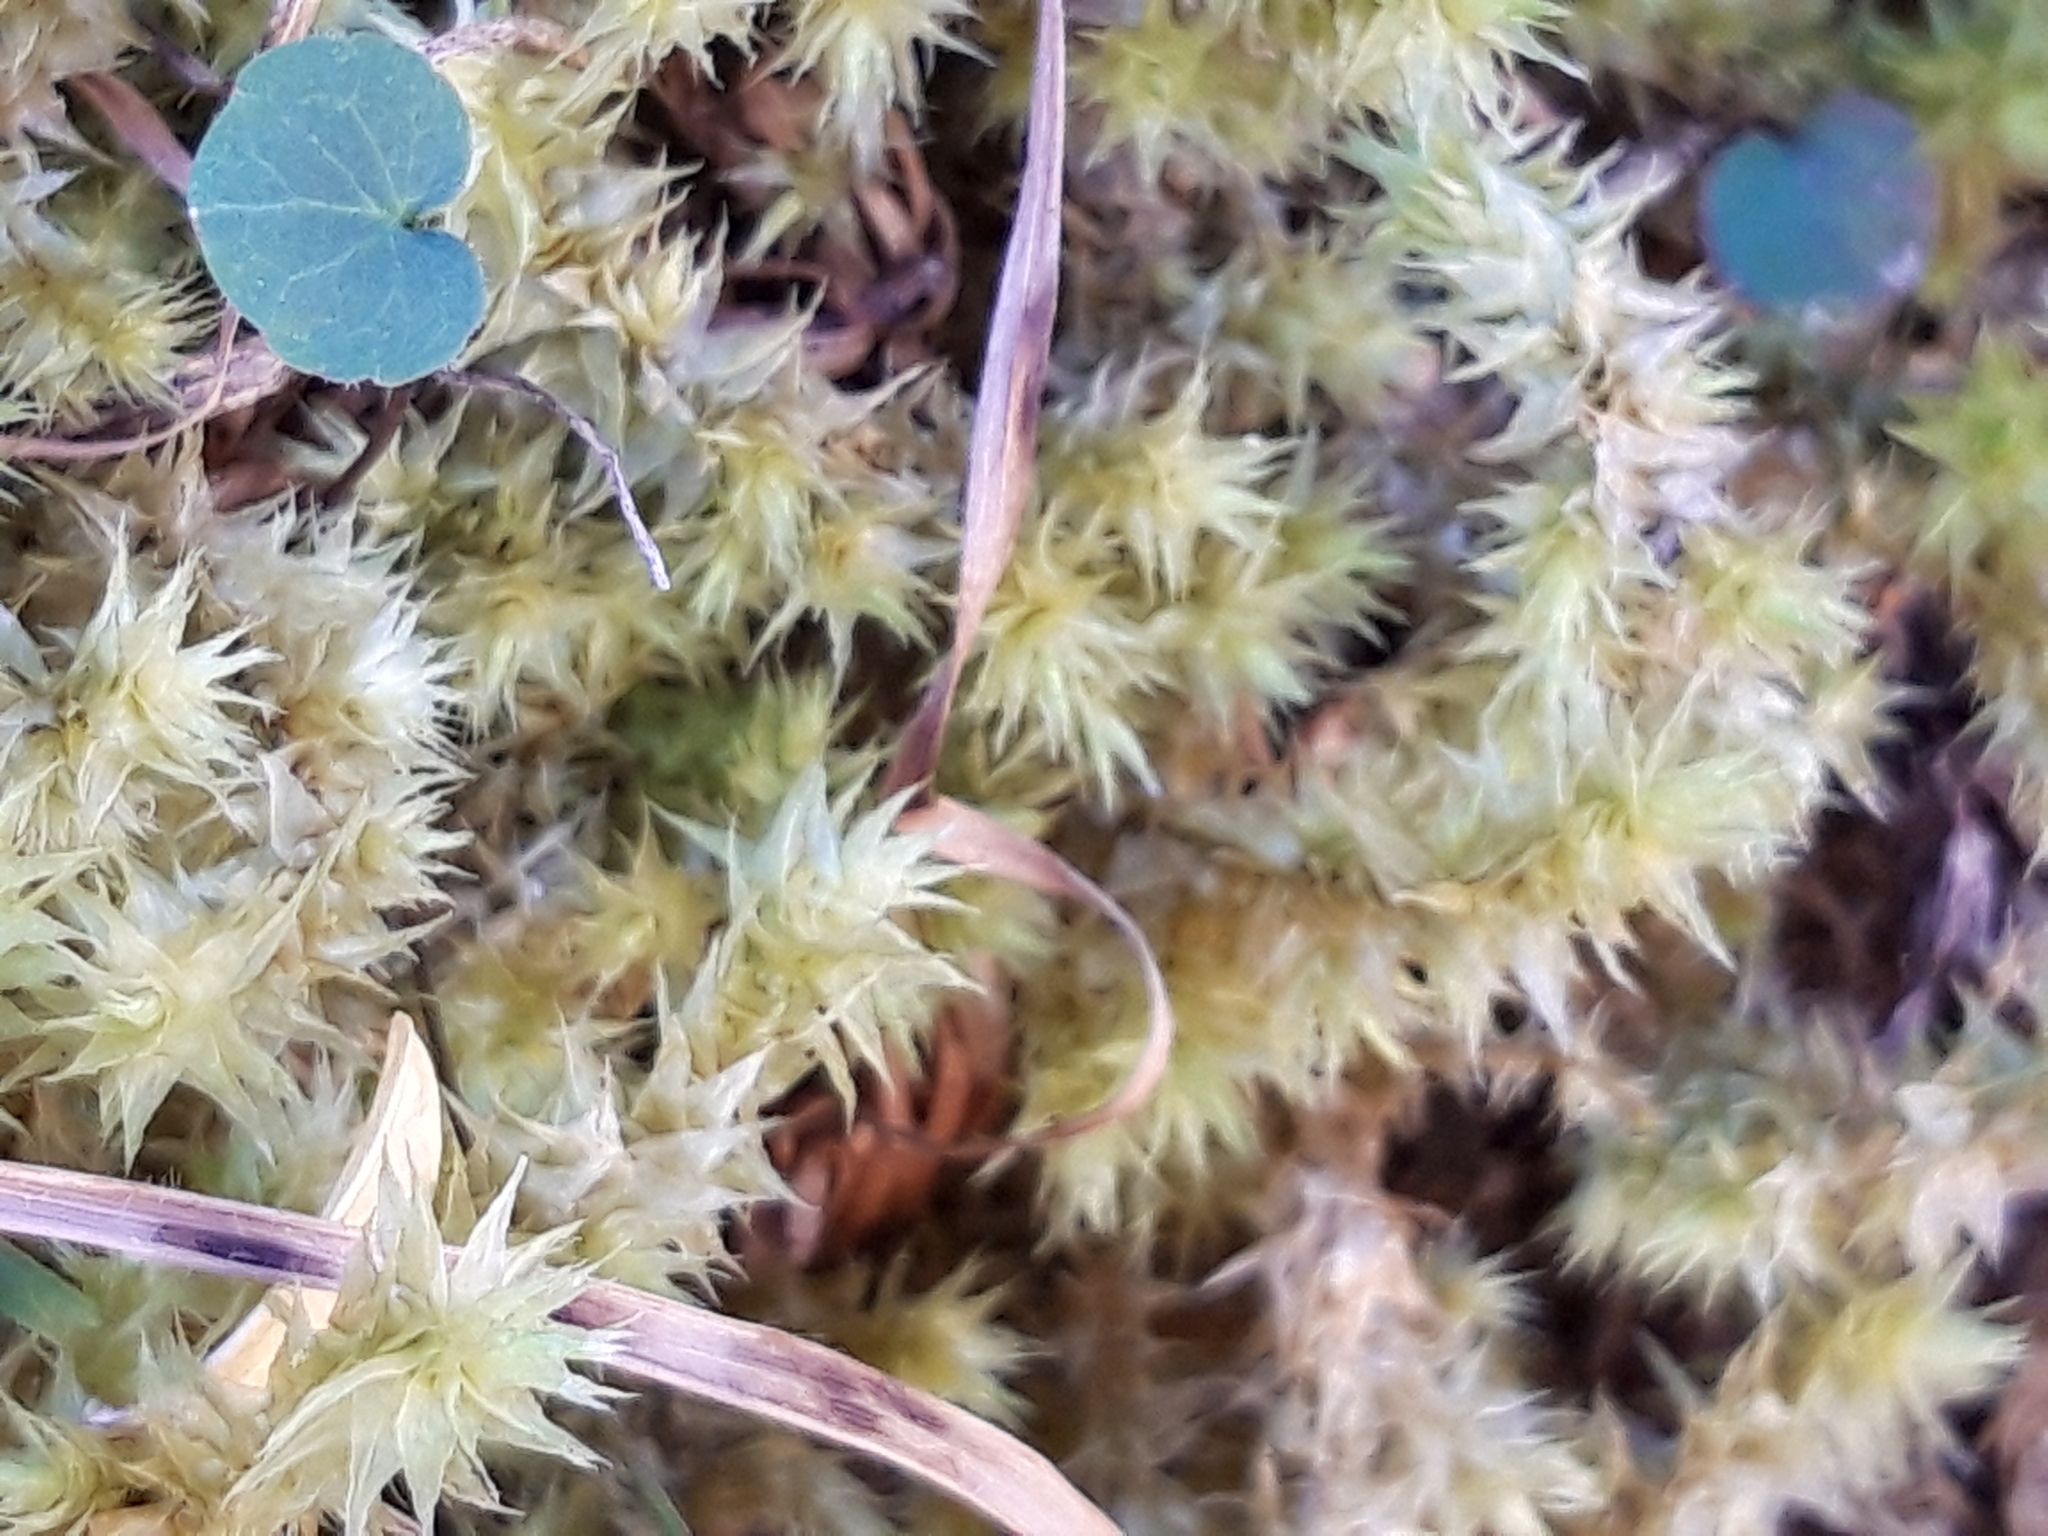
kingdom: Plantae
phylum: Bryophyta
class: Bryopsida
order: Hypnales
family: Hylocomiaceae
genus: Hylocomiadelphus
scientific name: Hylocomiadelphus triquetrus
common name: Rough goose neck moss
